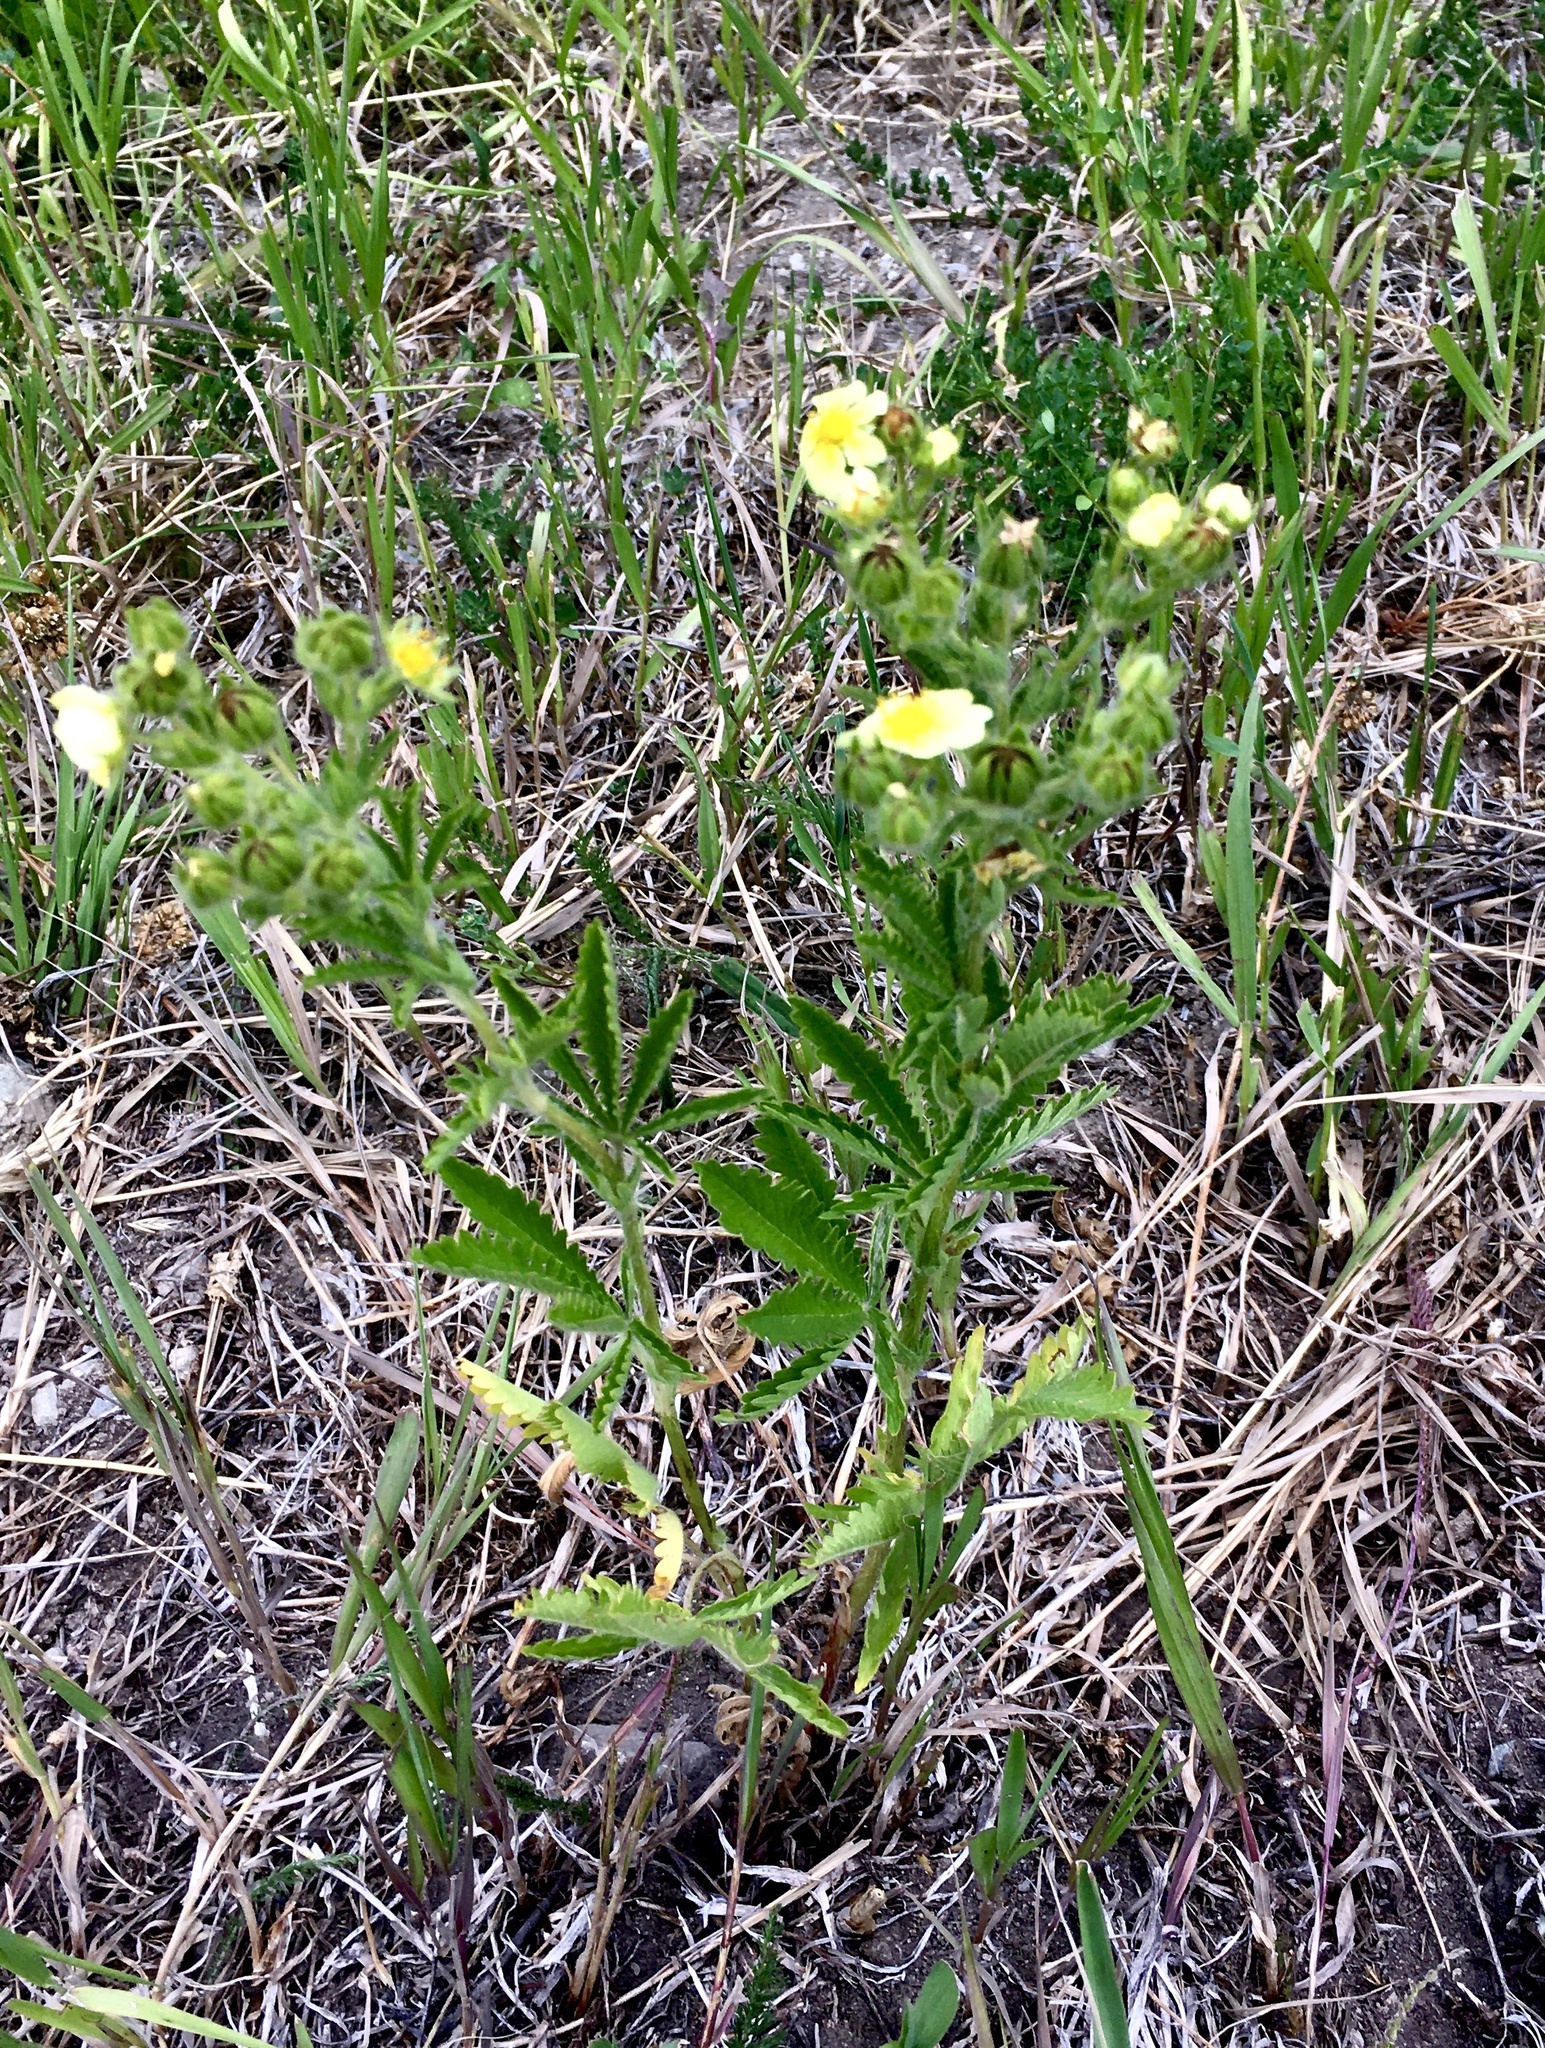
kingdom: Plantae
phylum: Tracheophyta
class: Magnoliopsida
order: Rosales
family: Rosaceae
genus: Potentilla
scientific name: Potentilla recta
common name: Sulphur cinquefoil
